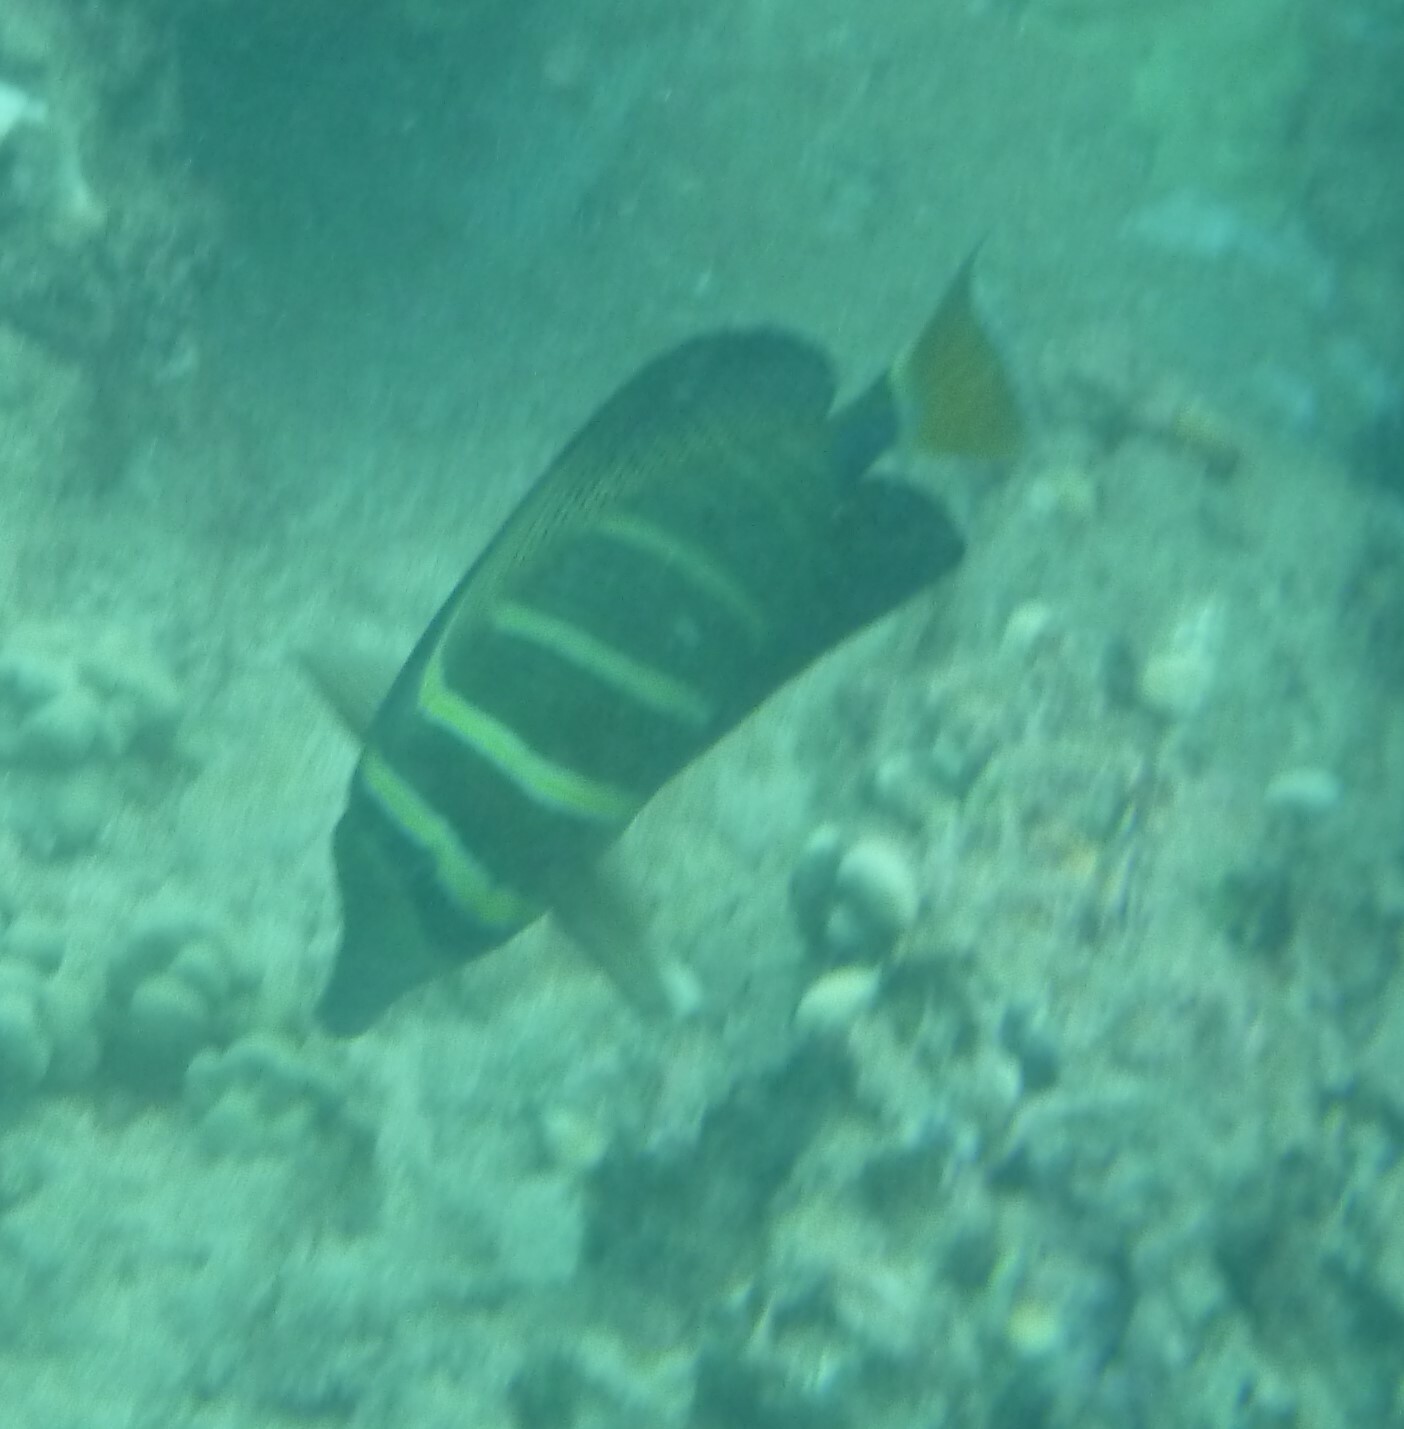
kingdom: Animalia
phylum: Chordata
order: Perciformes
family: Acanthuridae
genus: Zebrasoma
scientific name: Zebrasoma veliferum
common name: Sailfin surgeonfish
